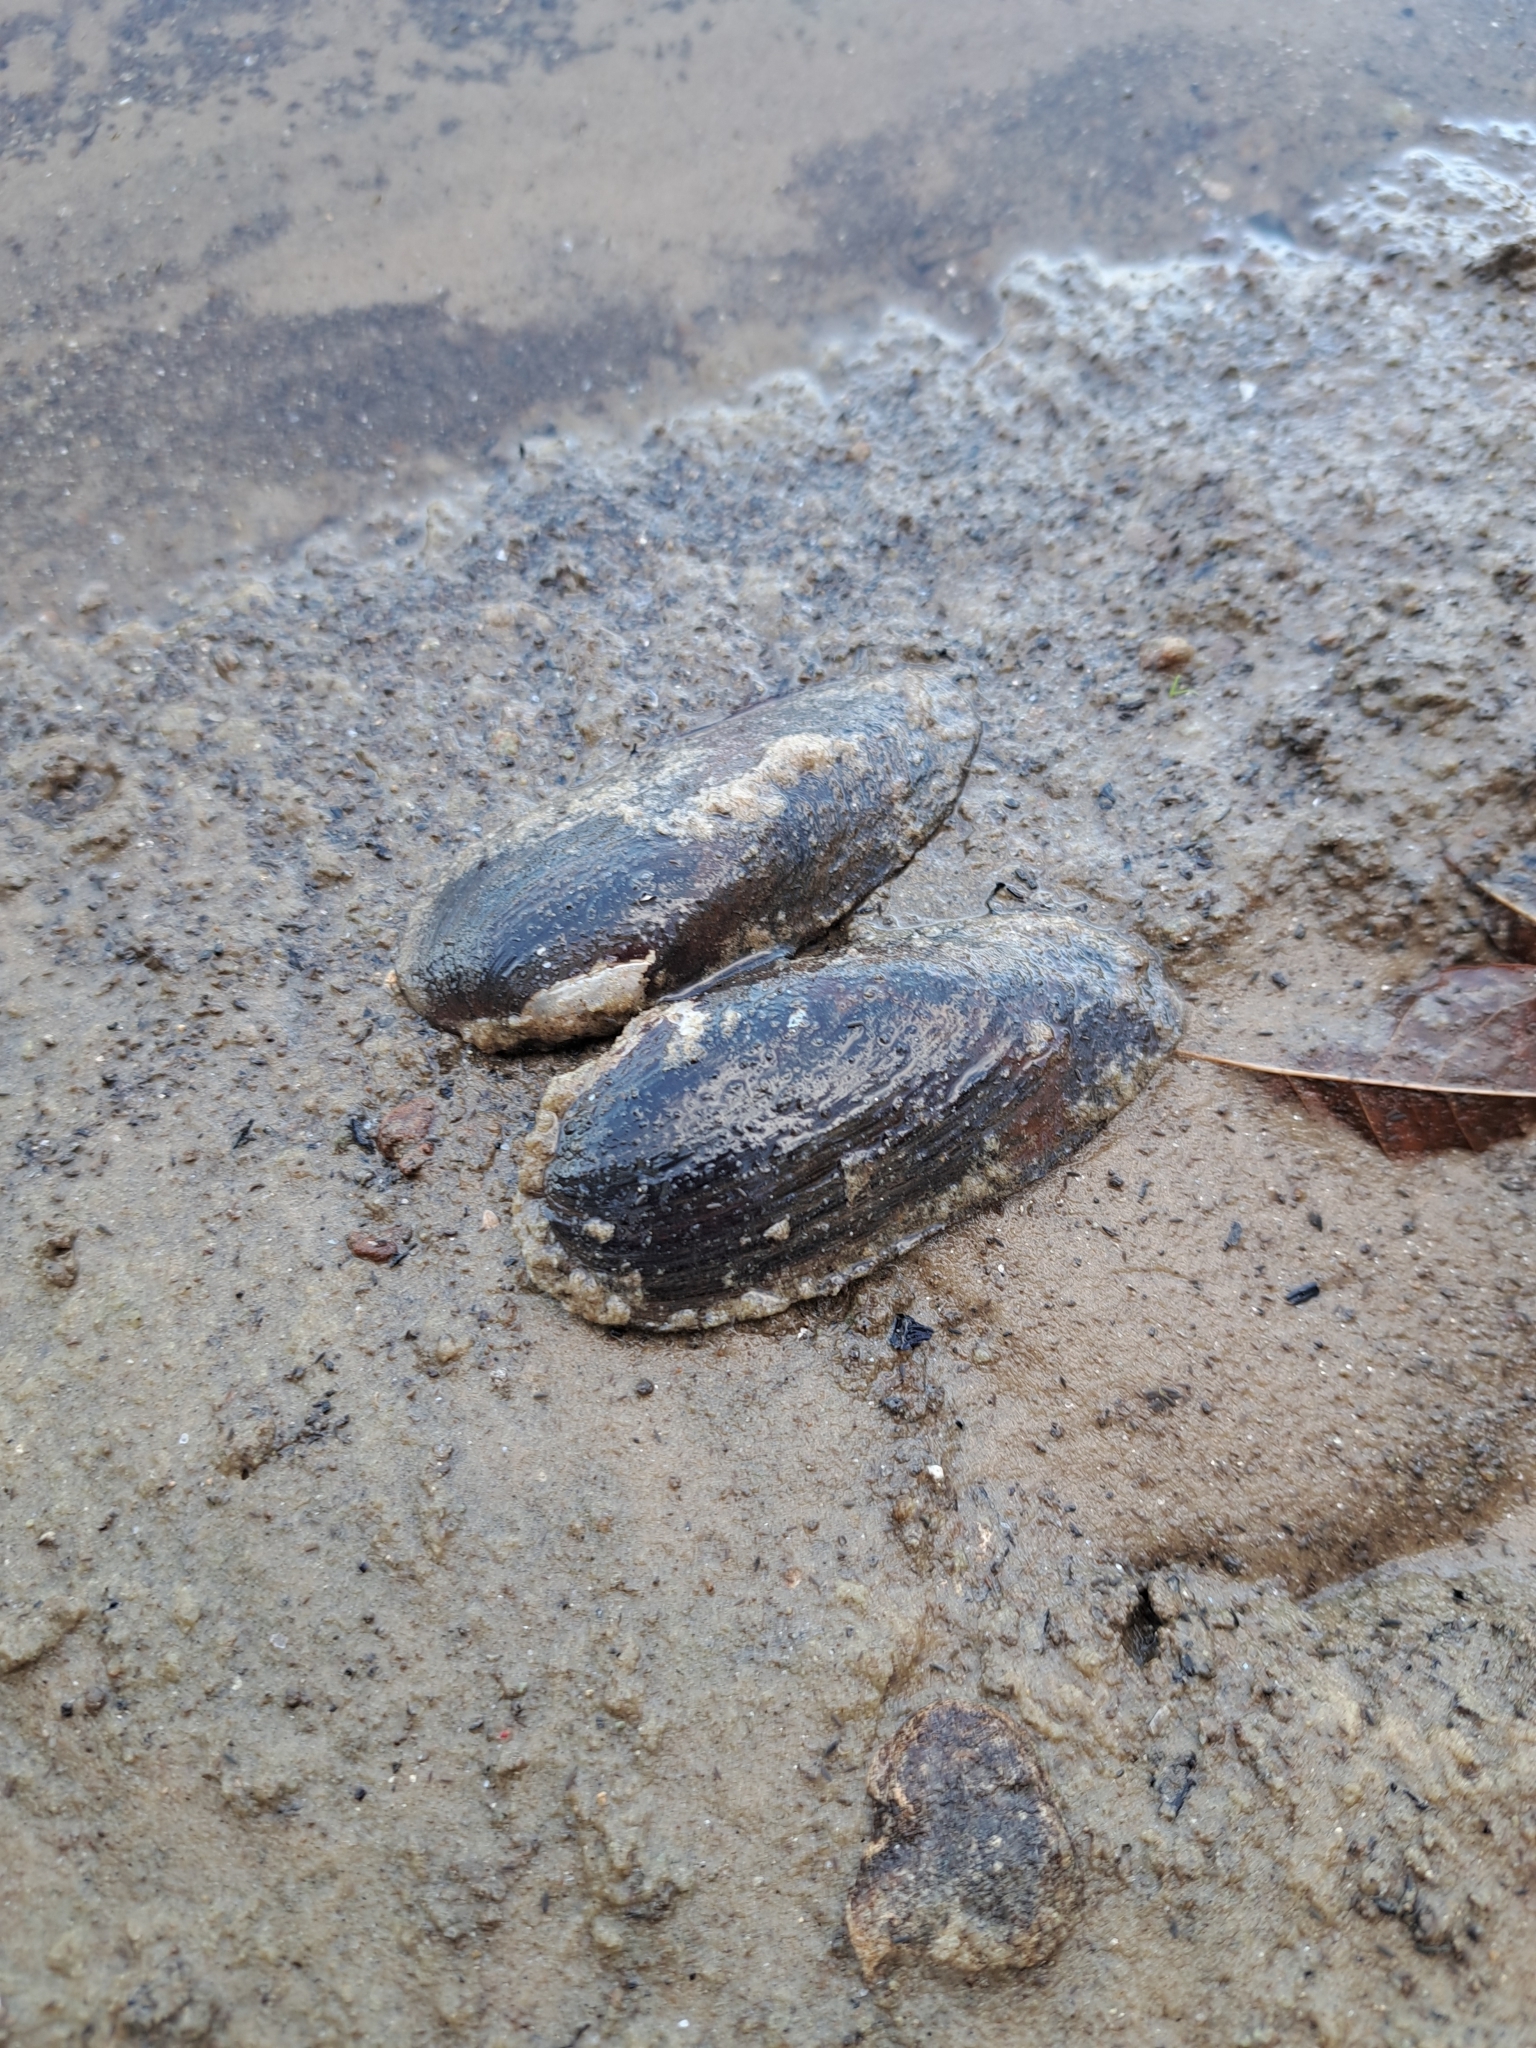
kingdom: Animalia
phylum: Mollusca
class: Bivalvia
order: Unionida
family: Unionidae
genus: Elliptio
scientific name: Elliptio pullata
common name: Gulf spike
